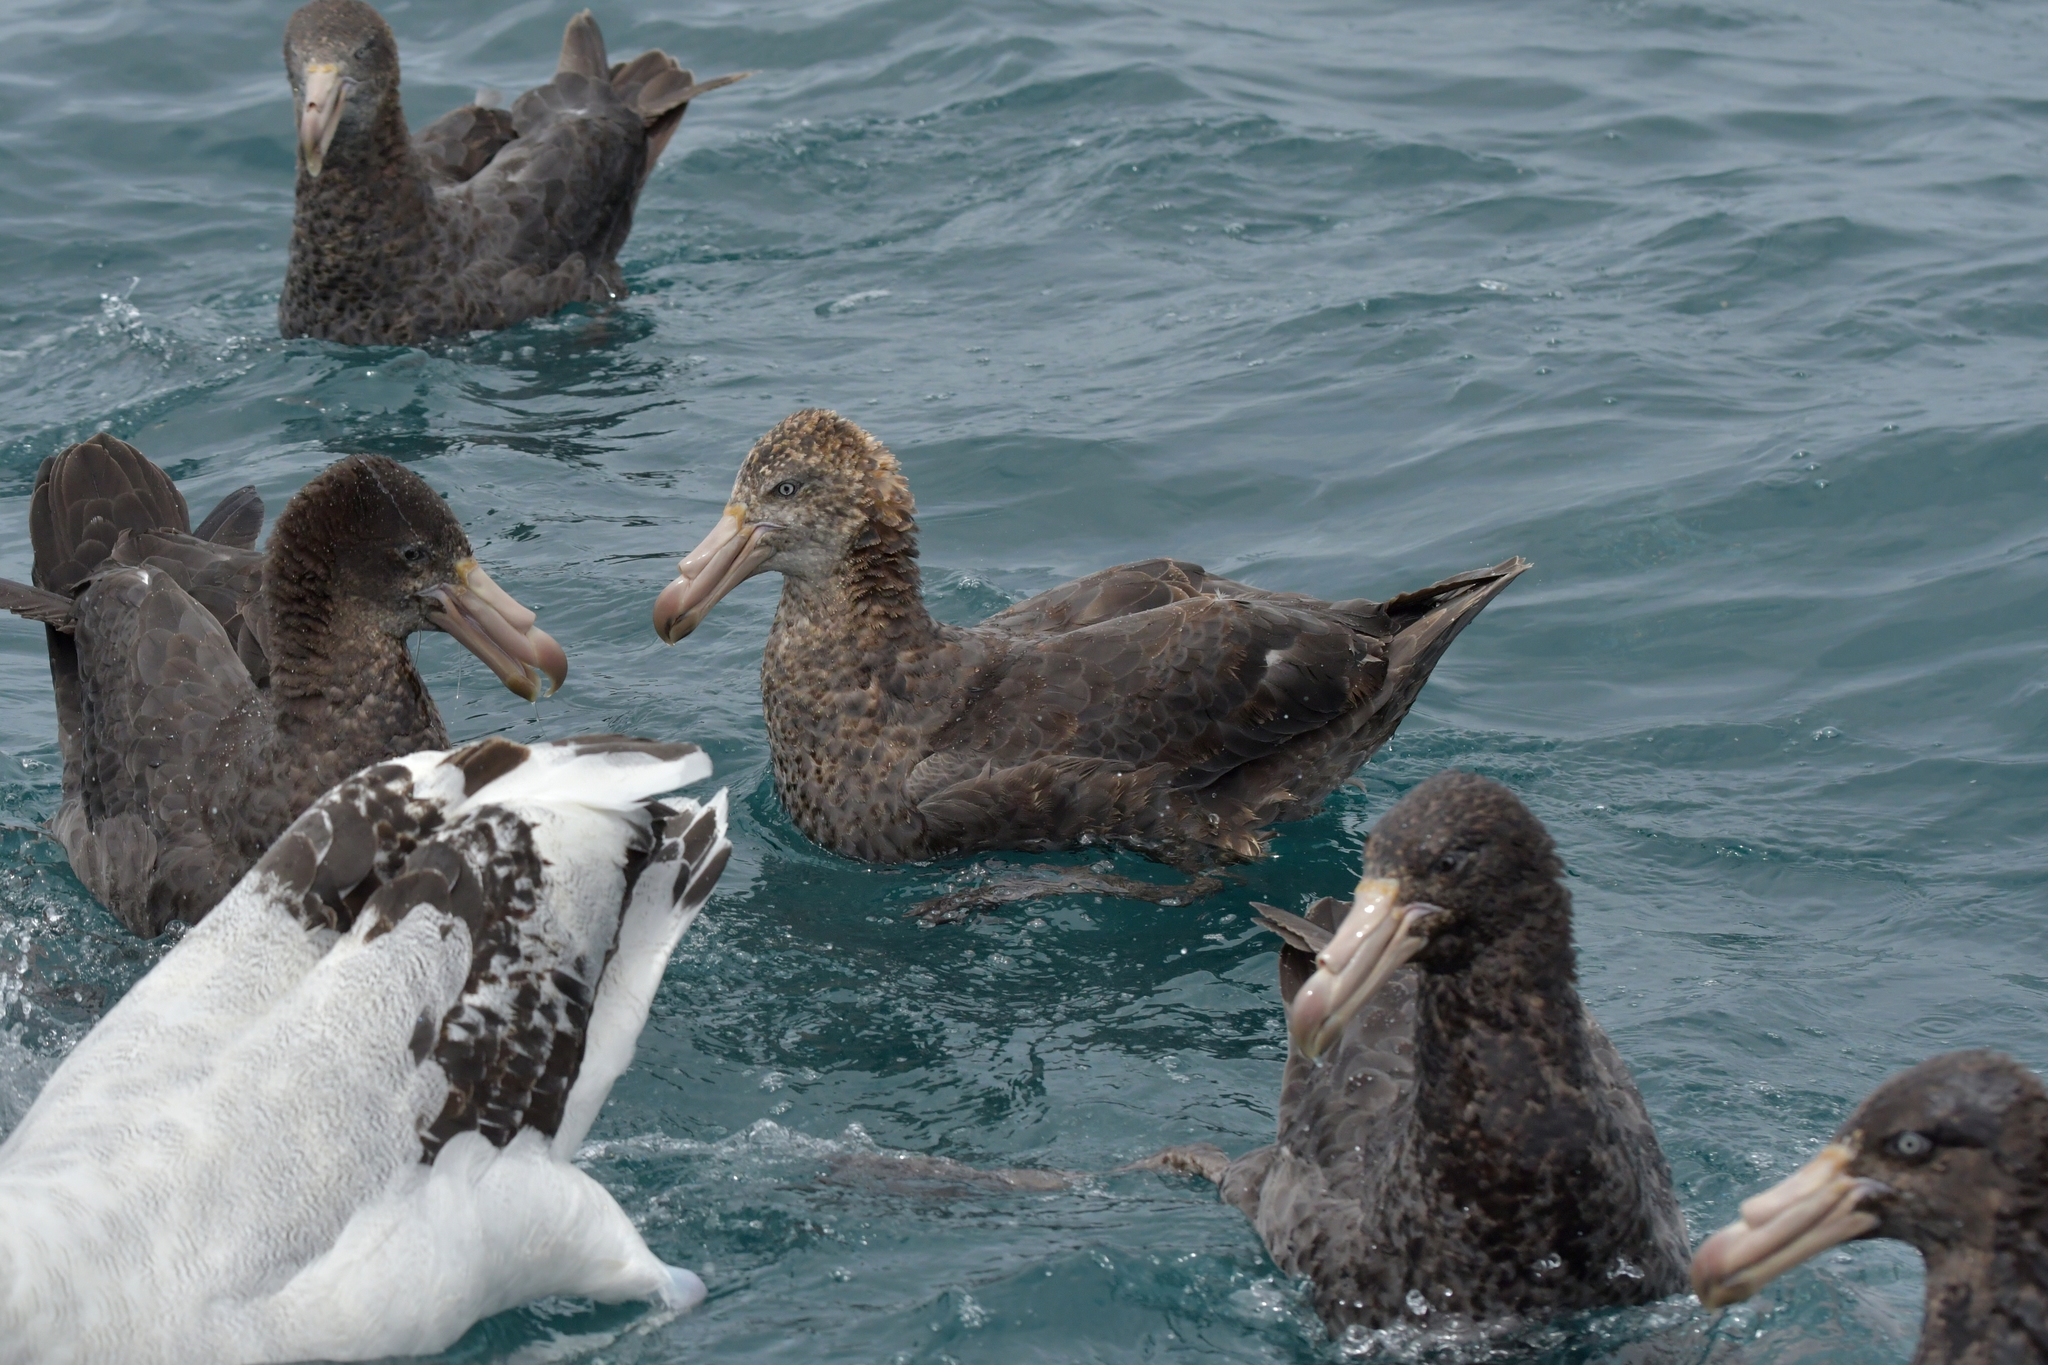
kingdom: Animalia
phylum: Chordata
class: Aves
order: Procellariiformes
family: Procellariidae
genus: Macronectes
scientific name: Macronectes halli
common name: Northern giant petrel
